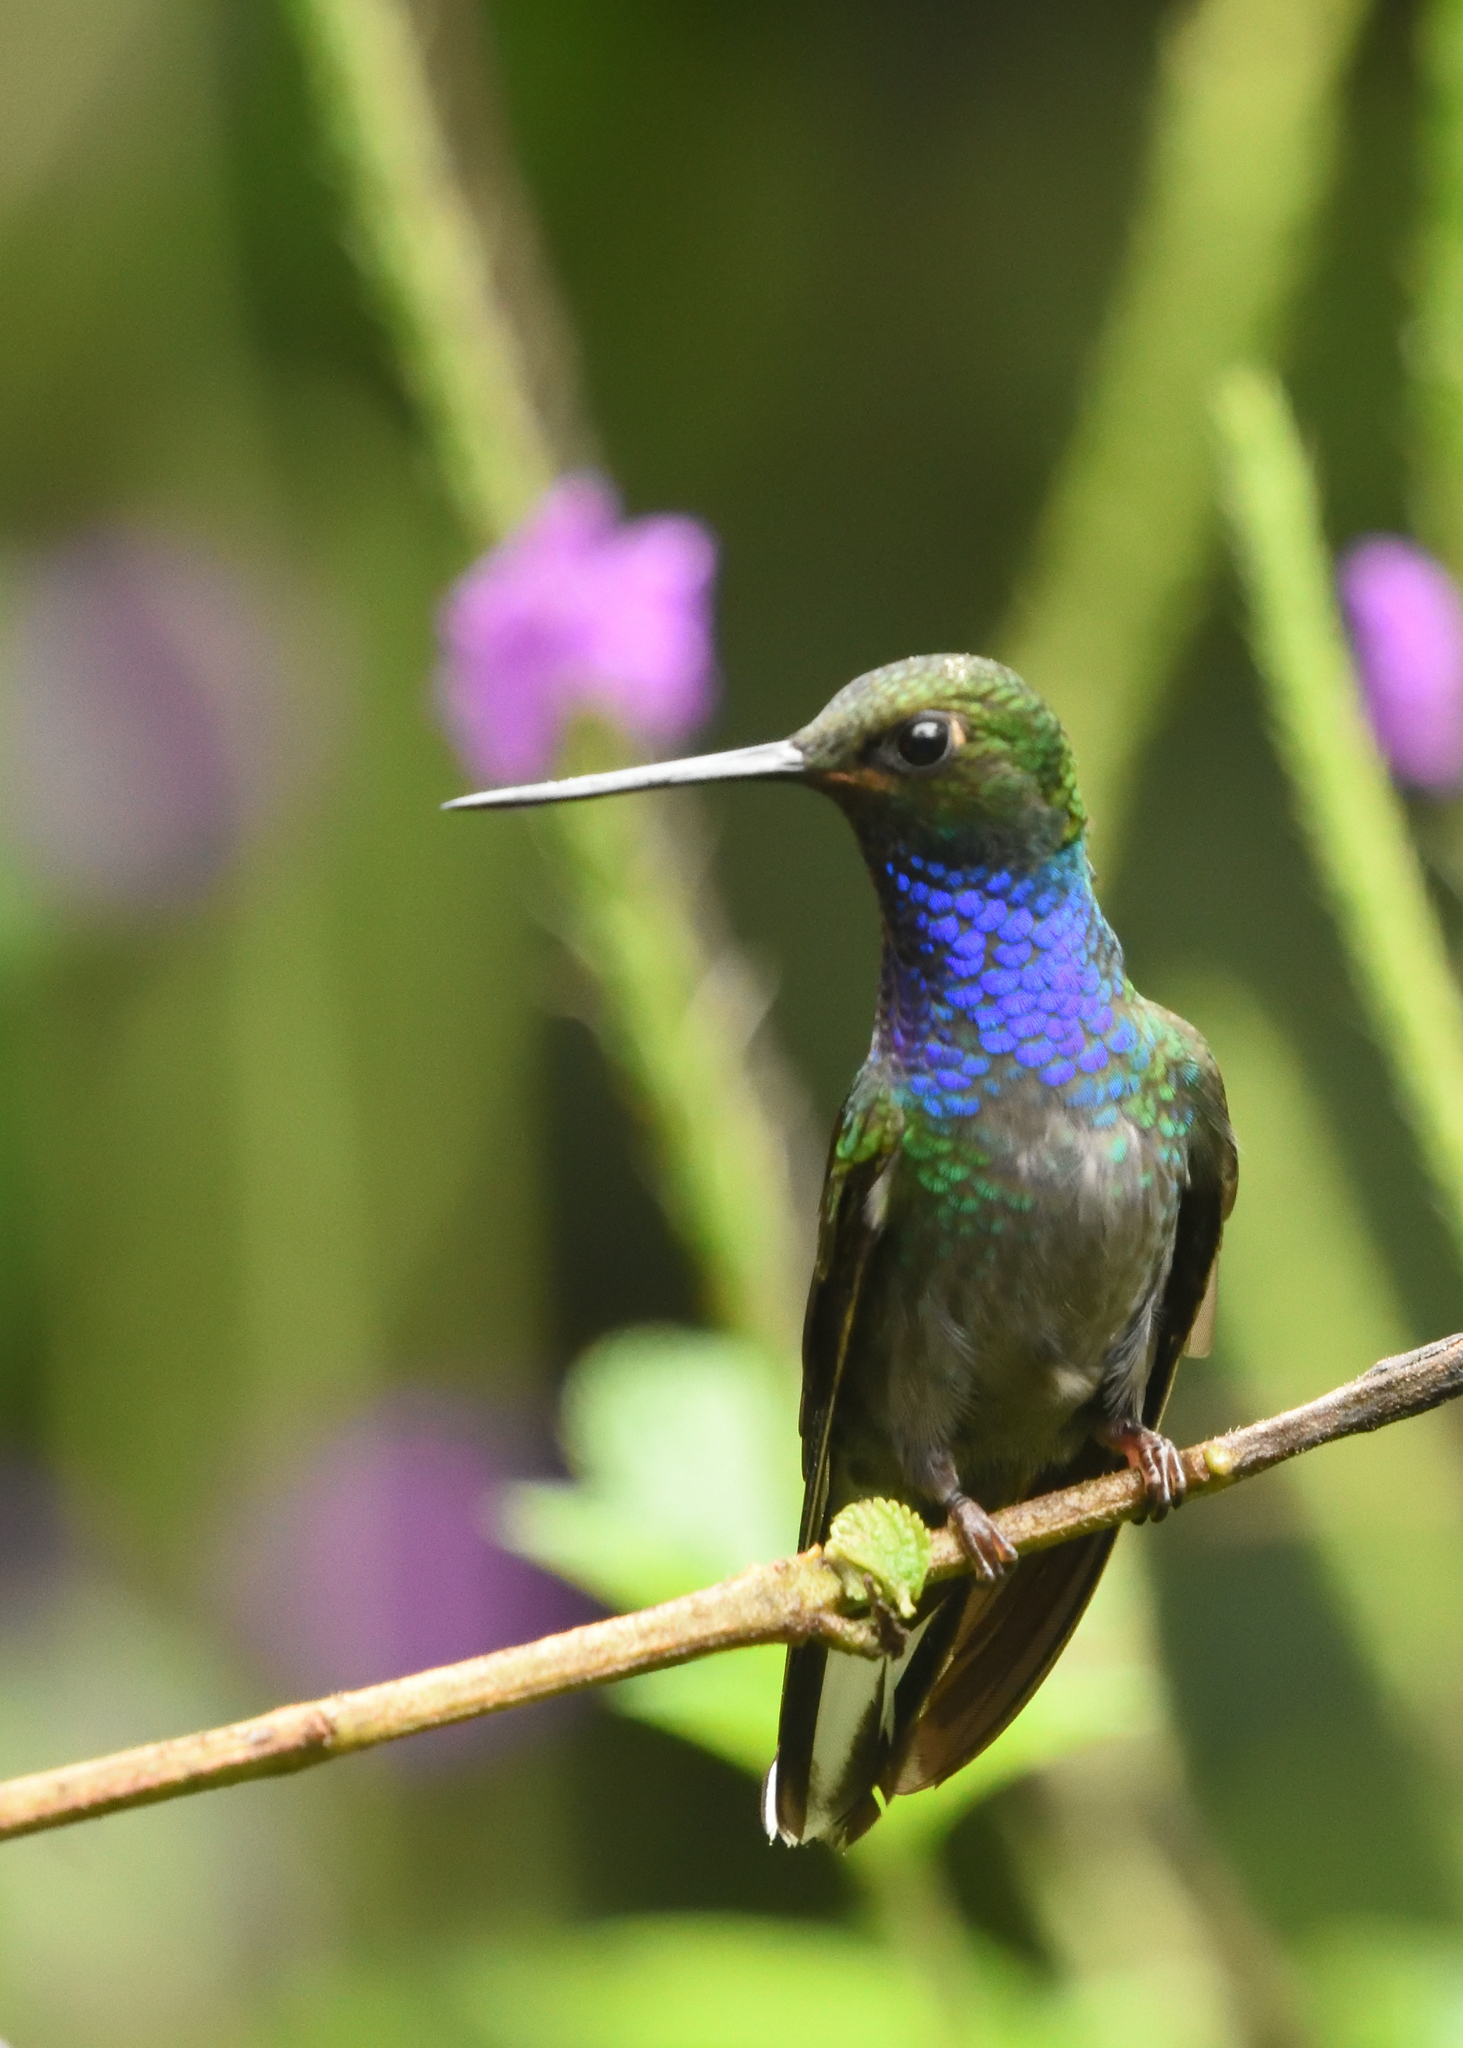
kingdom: Animalia
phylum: Chordata
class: Aves
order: Apodiformes
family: Trochilidae
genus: Urochroa
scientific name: Urochroa leucura
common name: Green-backed hillstar
